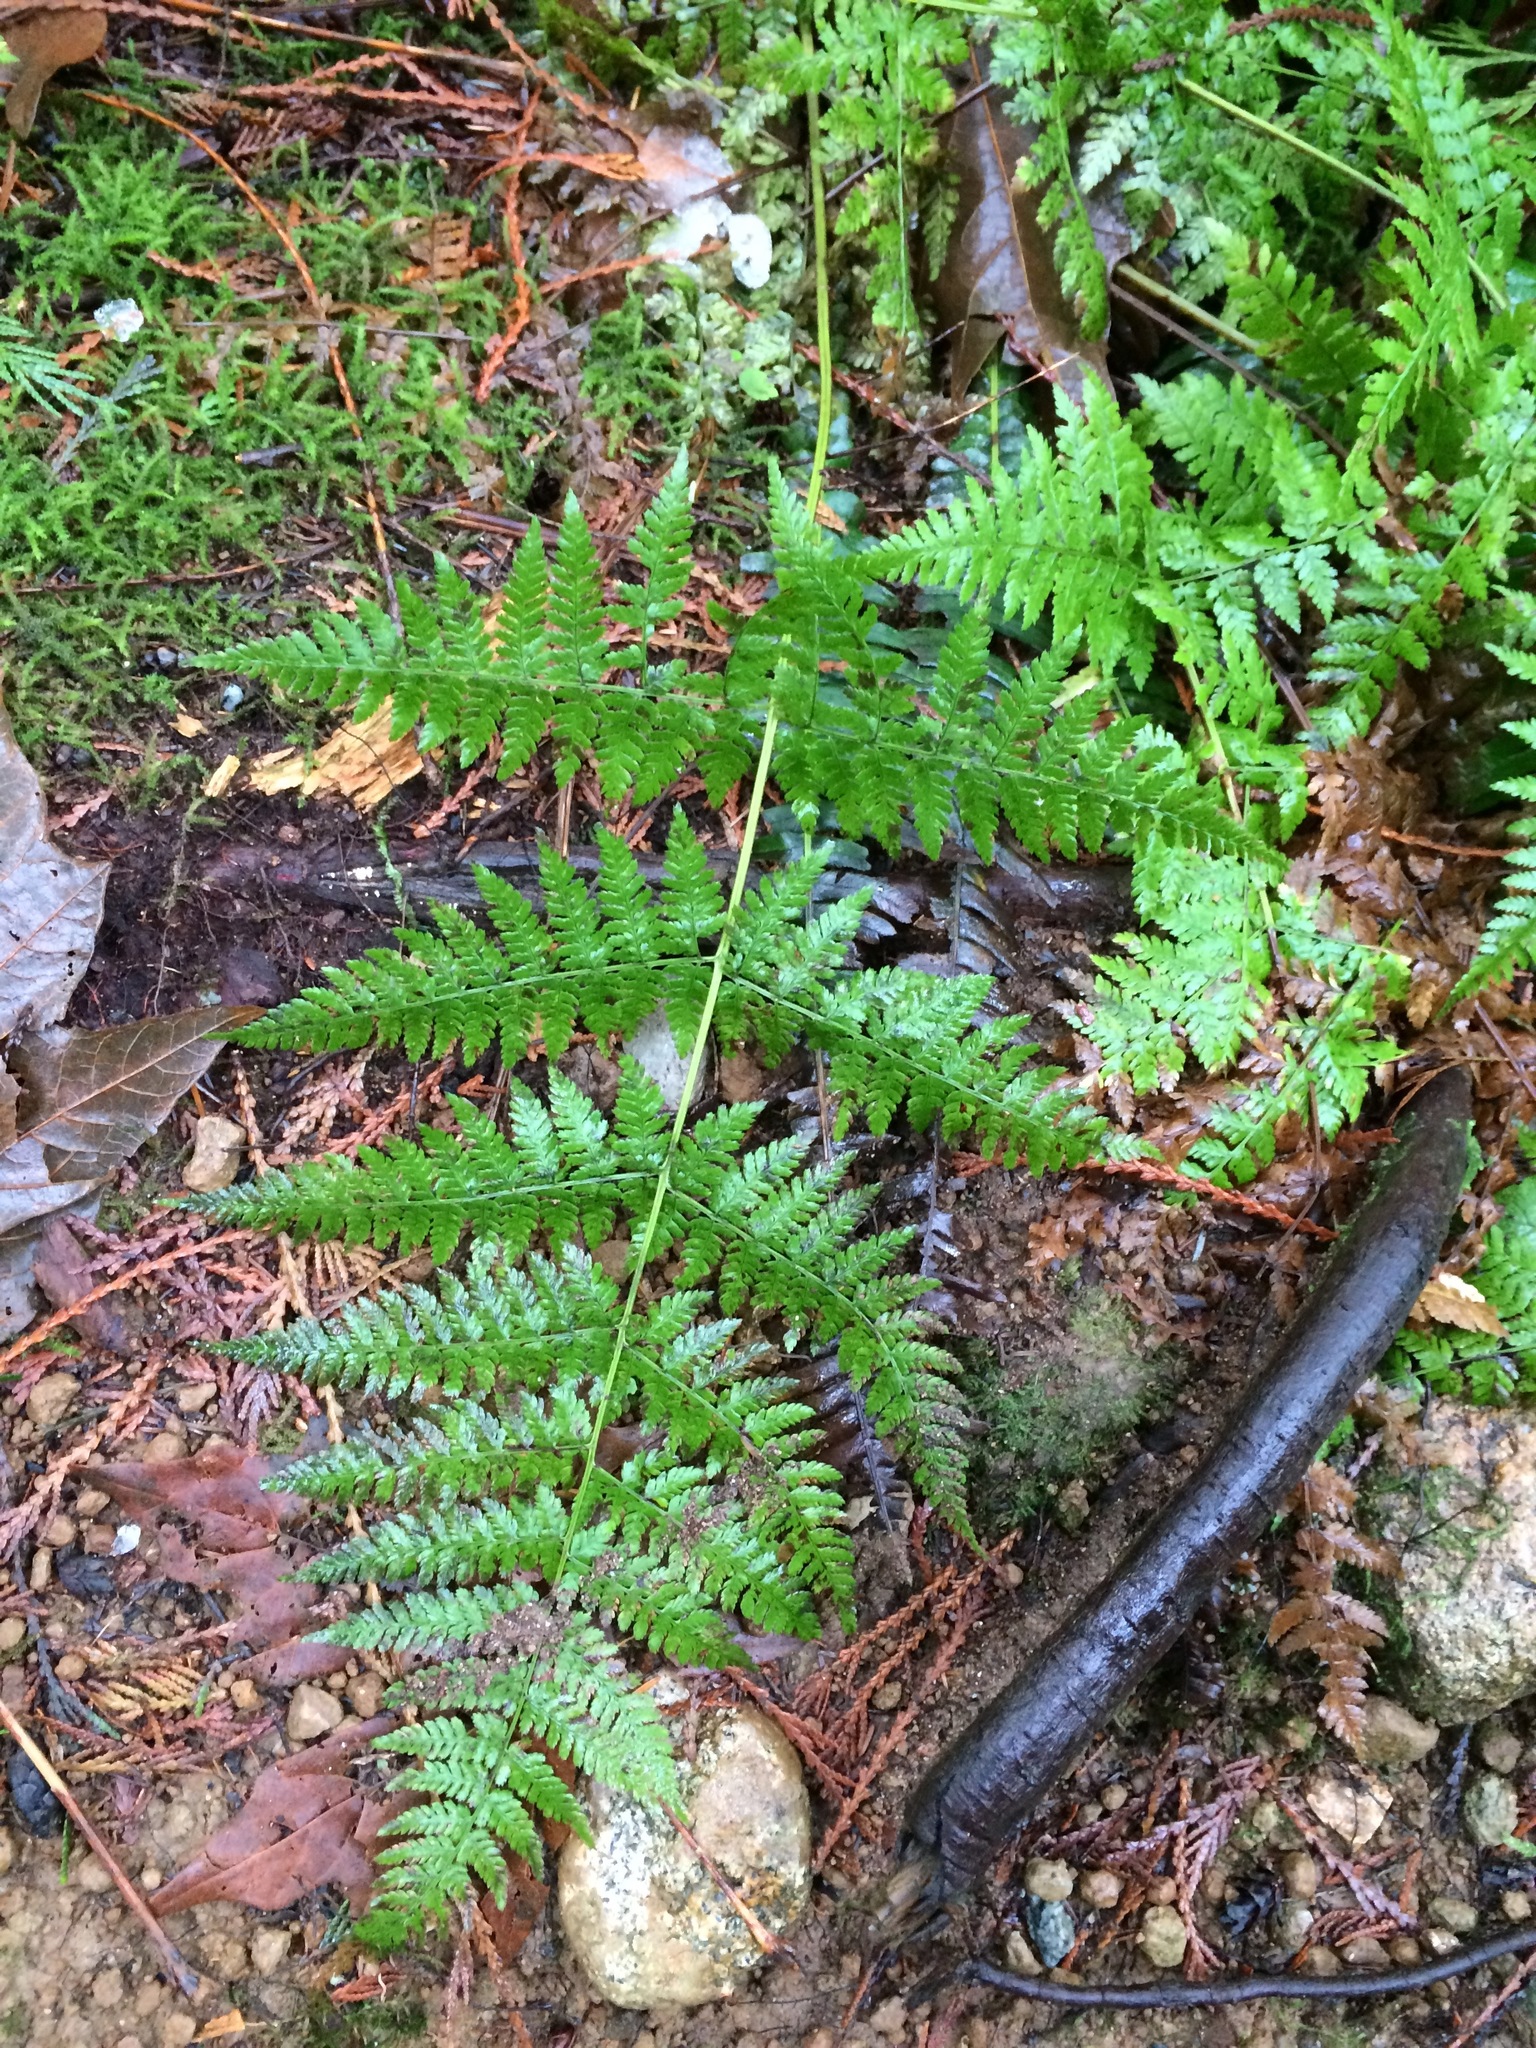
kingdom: Plantae
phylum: Tracheophyta
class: Polypodiopsida
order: Polypodiales
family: Dryopteridaceae
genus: Dryopteris
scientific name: Dryopteris expansa
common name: Northern buckler fern
